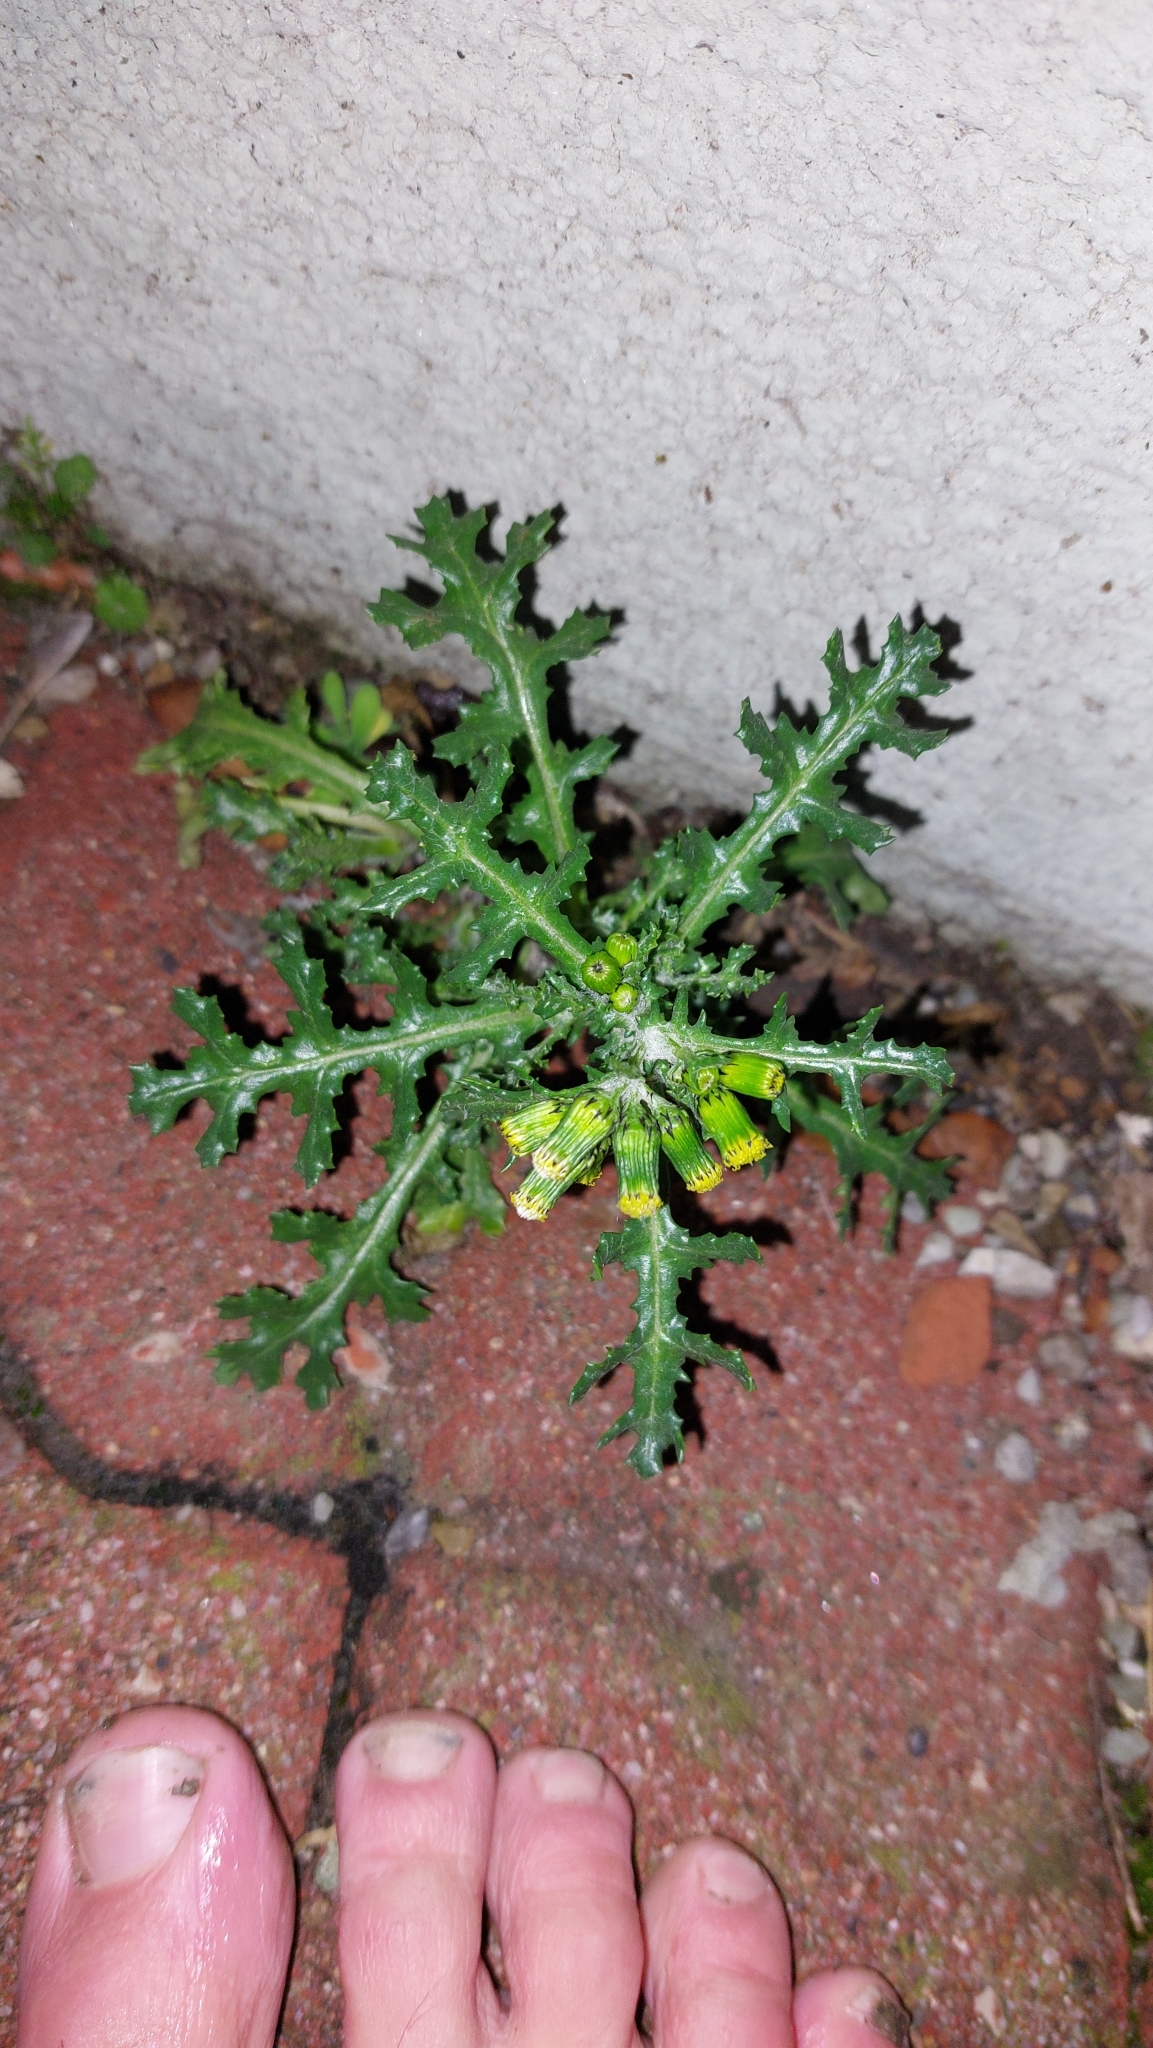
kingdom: Plantae
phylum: Tracheophyta
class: Magnoliopsida
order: Asterales
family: Asteraceae
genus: Senecio
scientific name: Senecio vulgaris
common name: Old-man-in-the-spring
